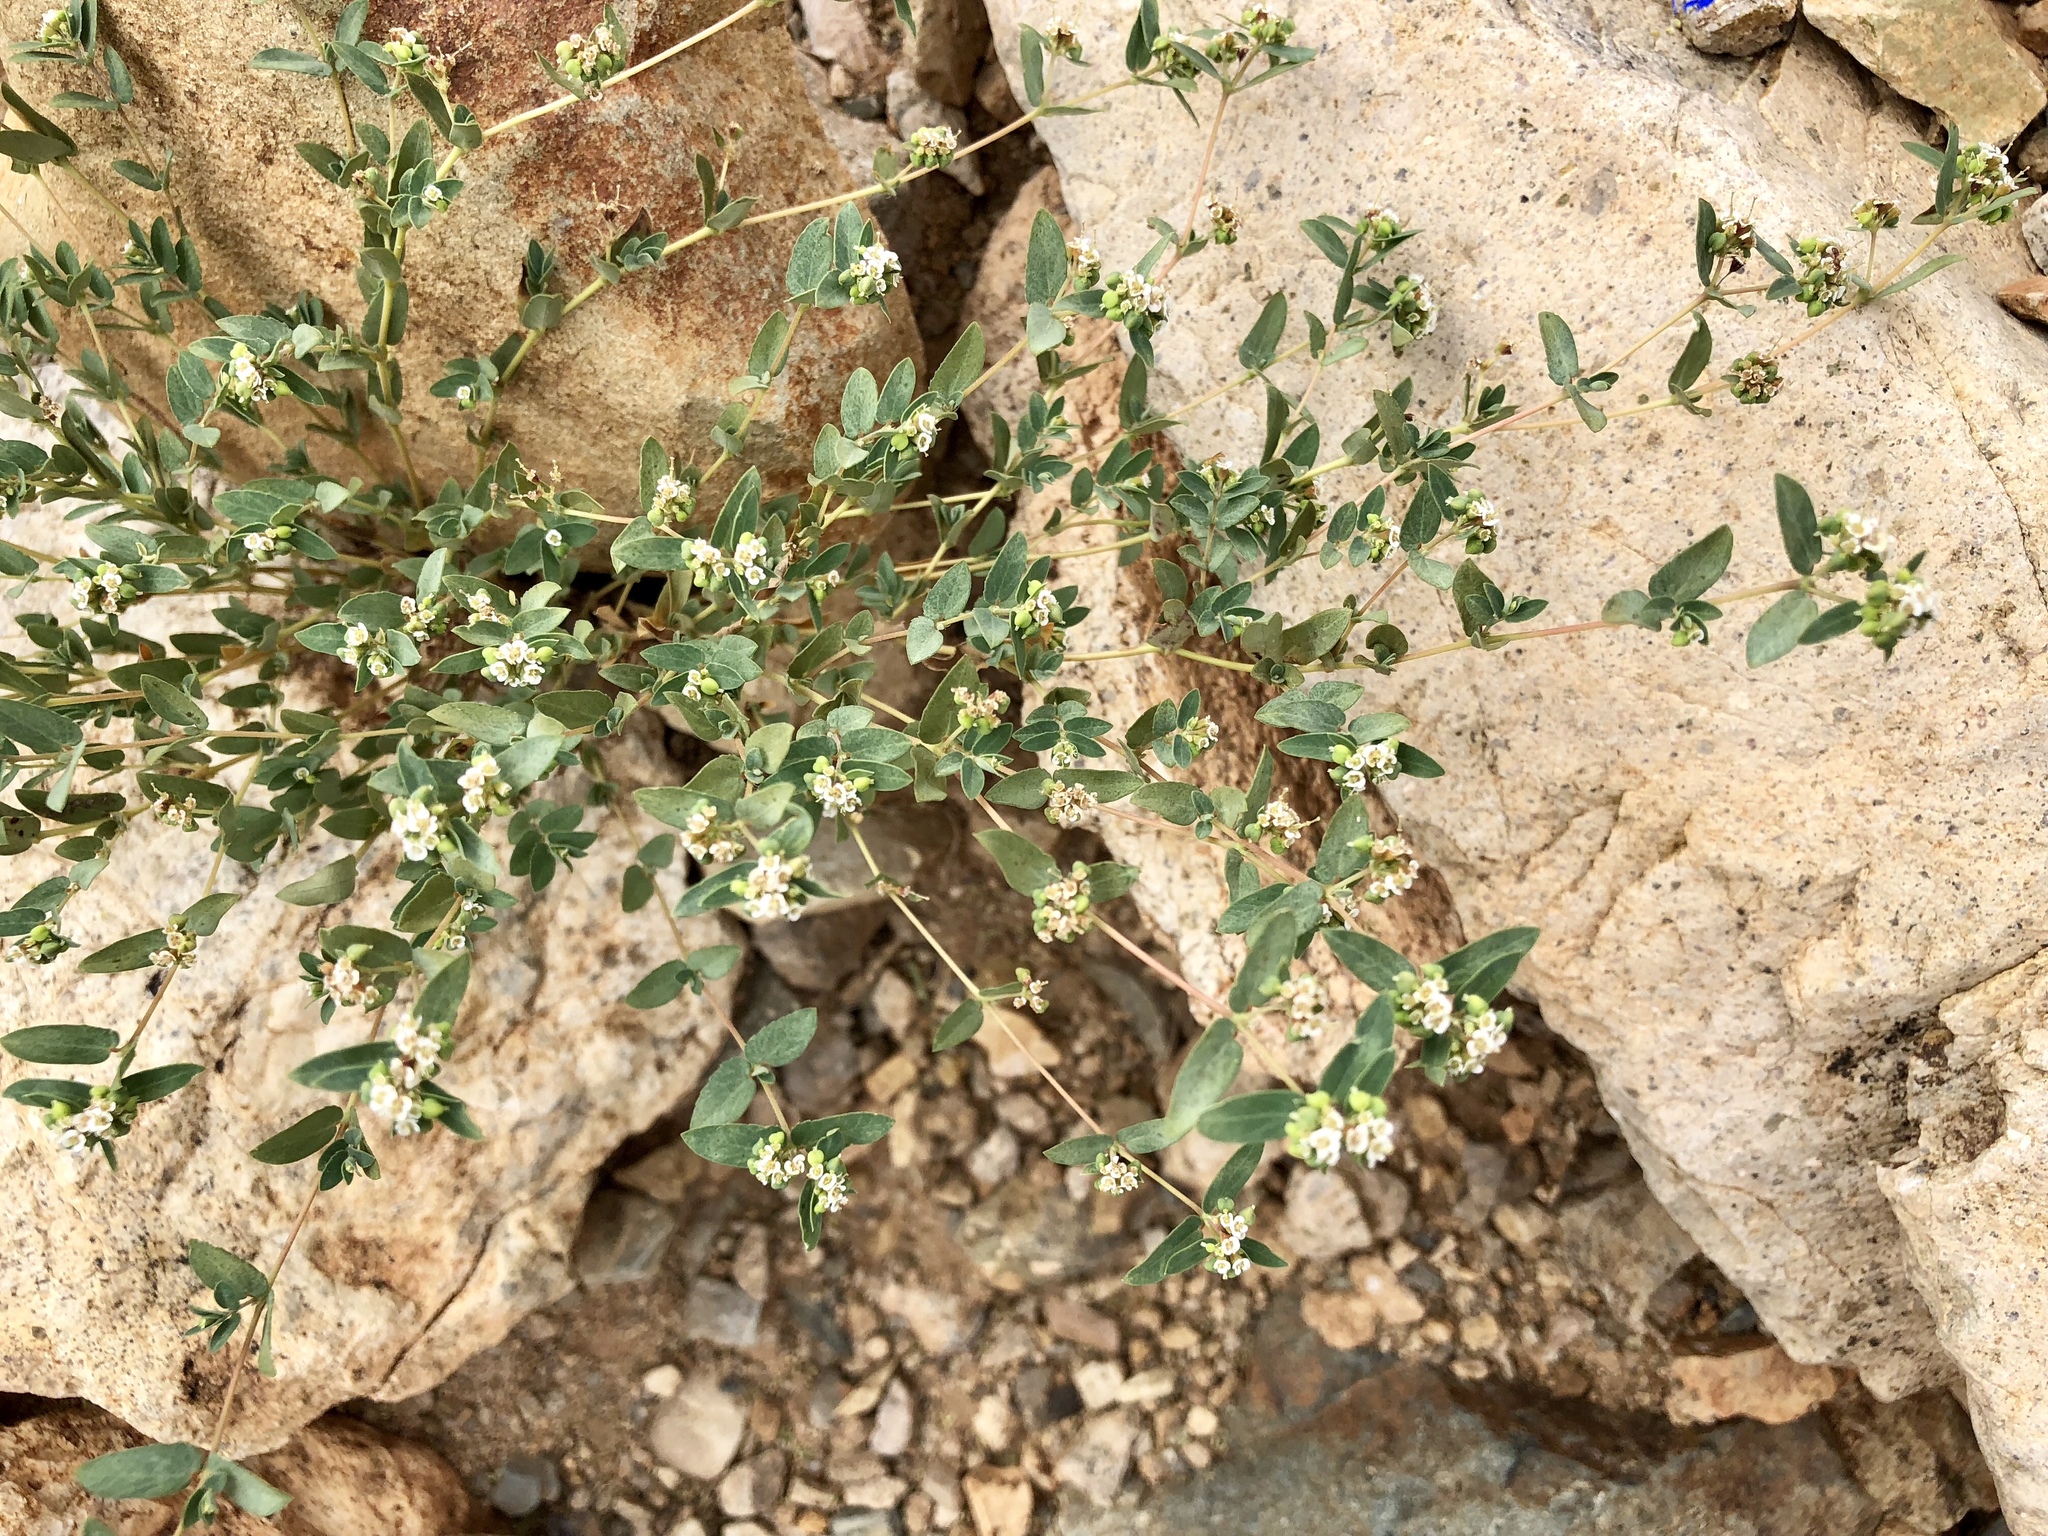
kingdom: Plantae
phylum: Tracheophyta
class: Magnoliopsida
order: Malpighiales
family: Euphorbiaceae
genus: Euphorbia
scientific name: Euphorbia capitellata
